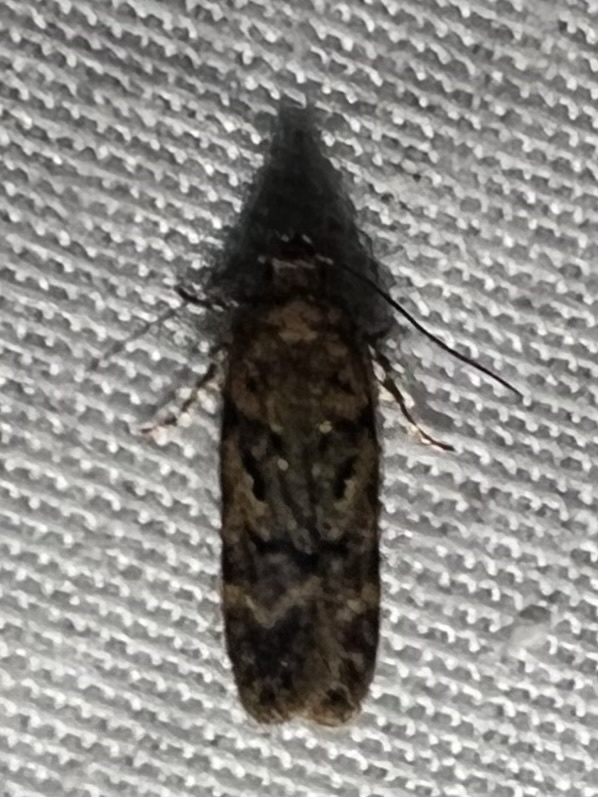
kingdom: Animalia
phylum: Arthropoda
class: Insecta
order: Lepidoptera
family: Gelechiidae
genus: Chionodes
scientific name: Chionodes
